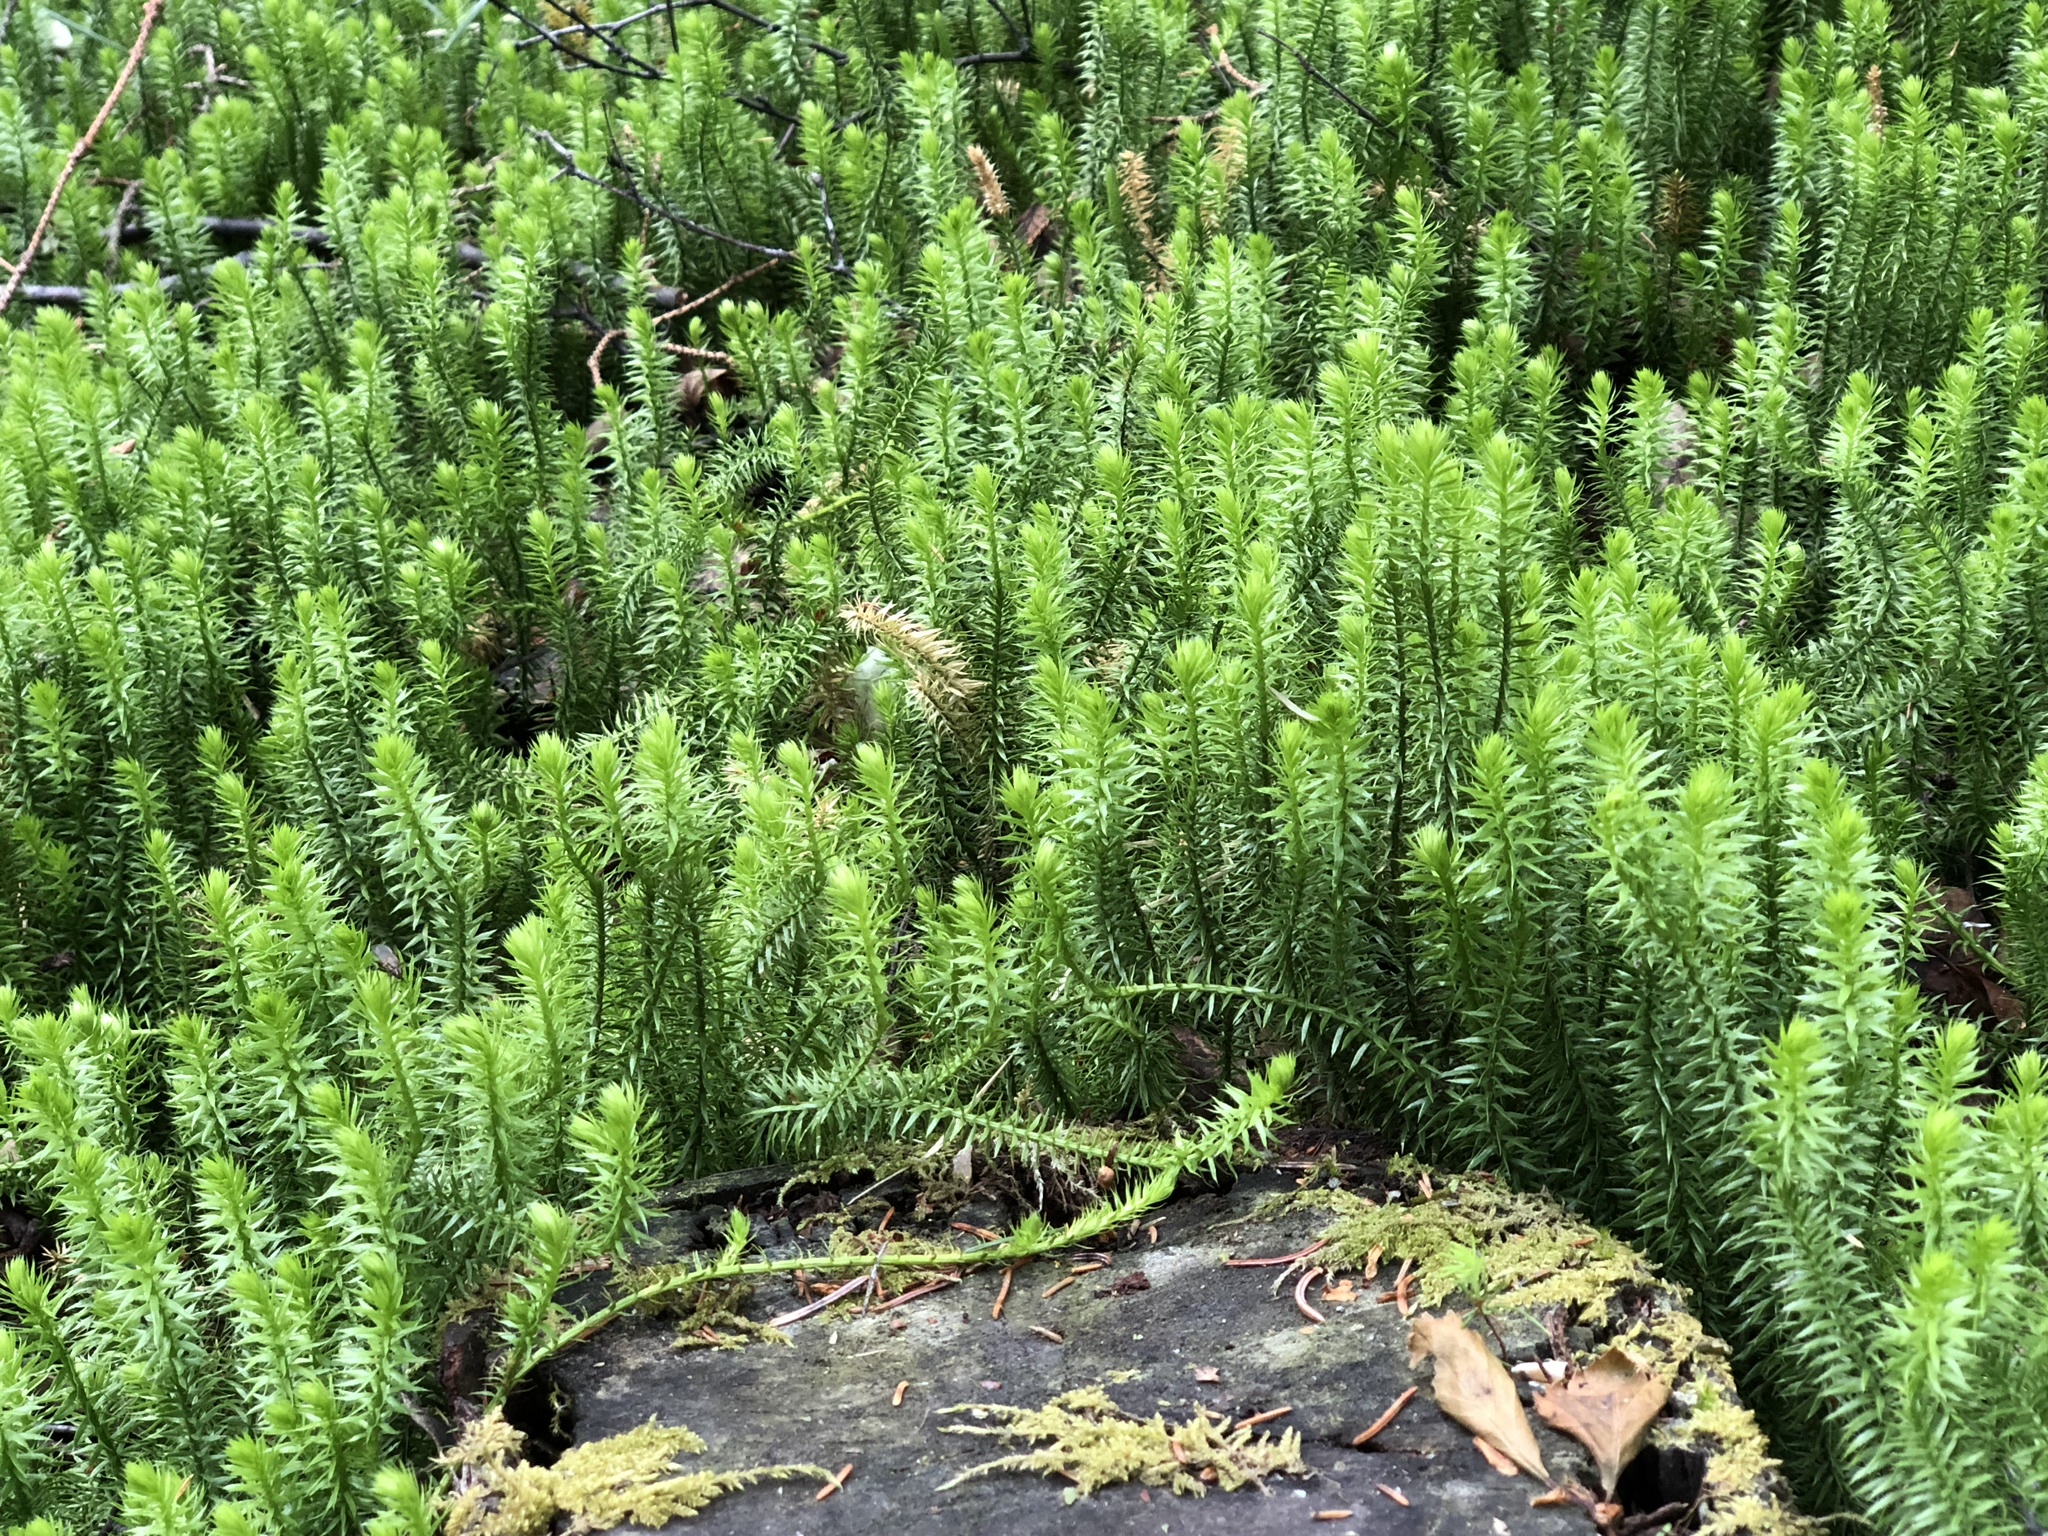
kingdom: Plantae
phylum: Tracheophyta
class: Lycopodiopsida
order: Lycopodiales
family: Lycopodiaceae
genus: Spinulum
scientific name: Spinulum annotinum
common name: Interrupted club-moss
